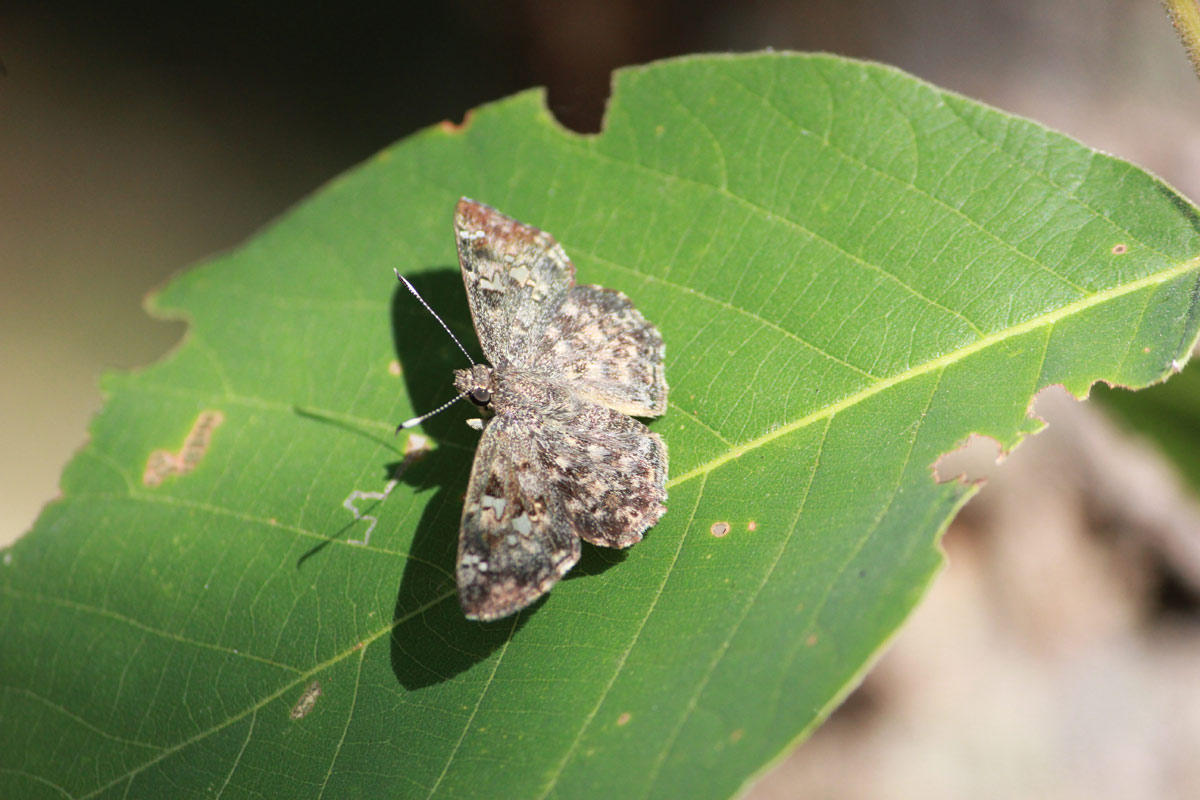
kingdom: Animalia
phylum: Arthropoda
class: Insecta
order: Lepidoptera
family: Hesperiidae
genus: Sarangesa
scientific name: Sarangesa seineri
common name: Dark elfin
